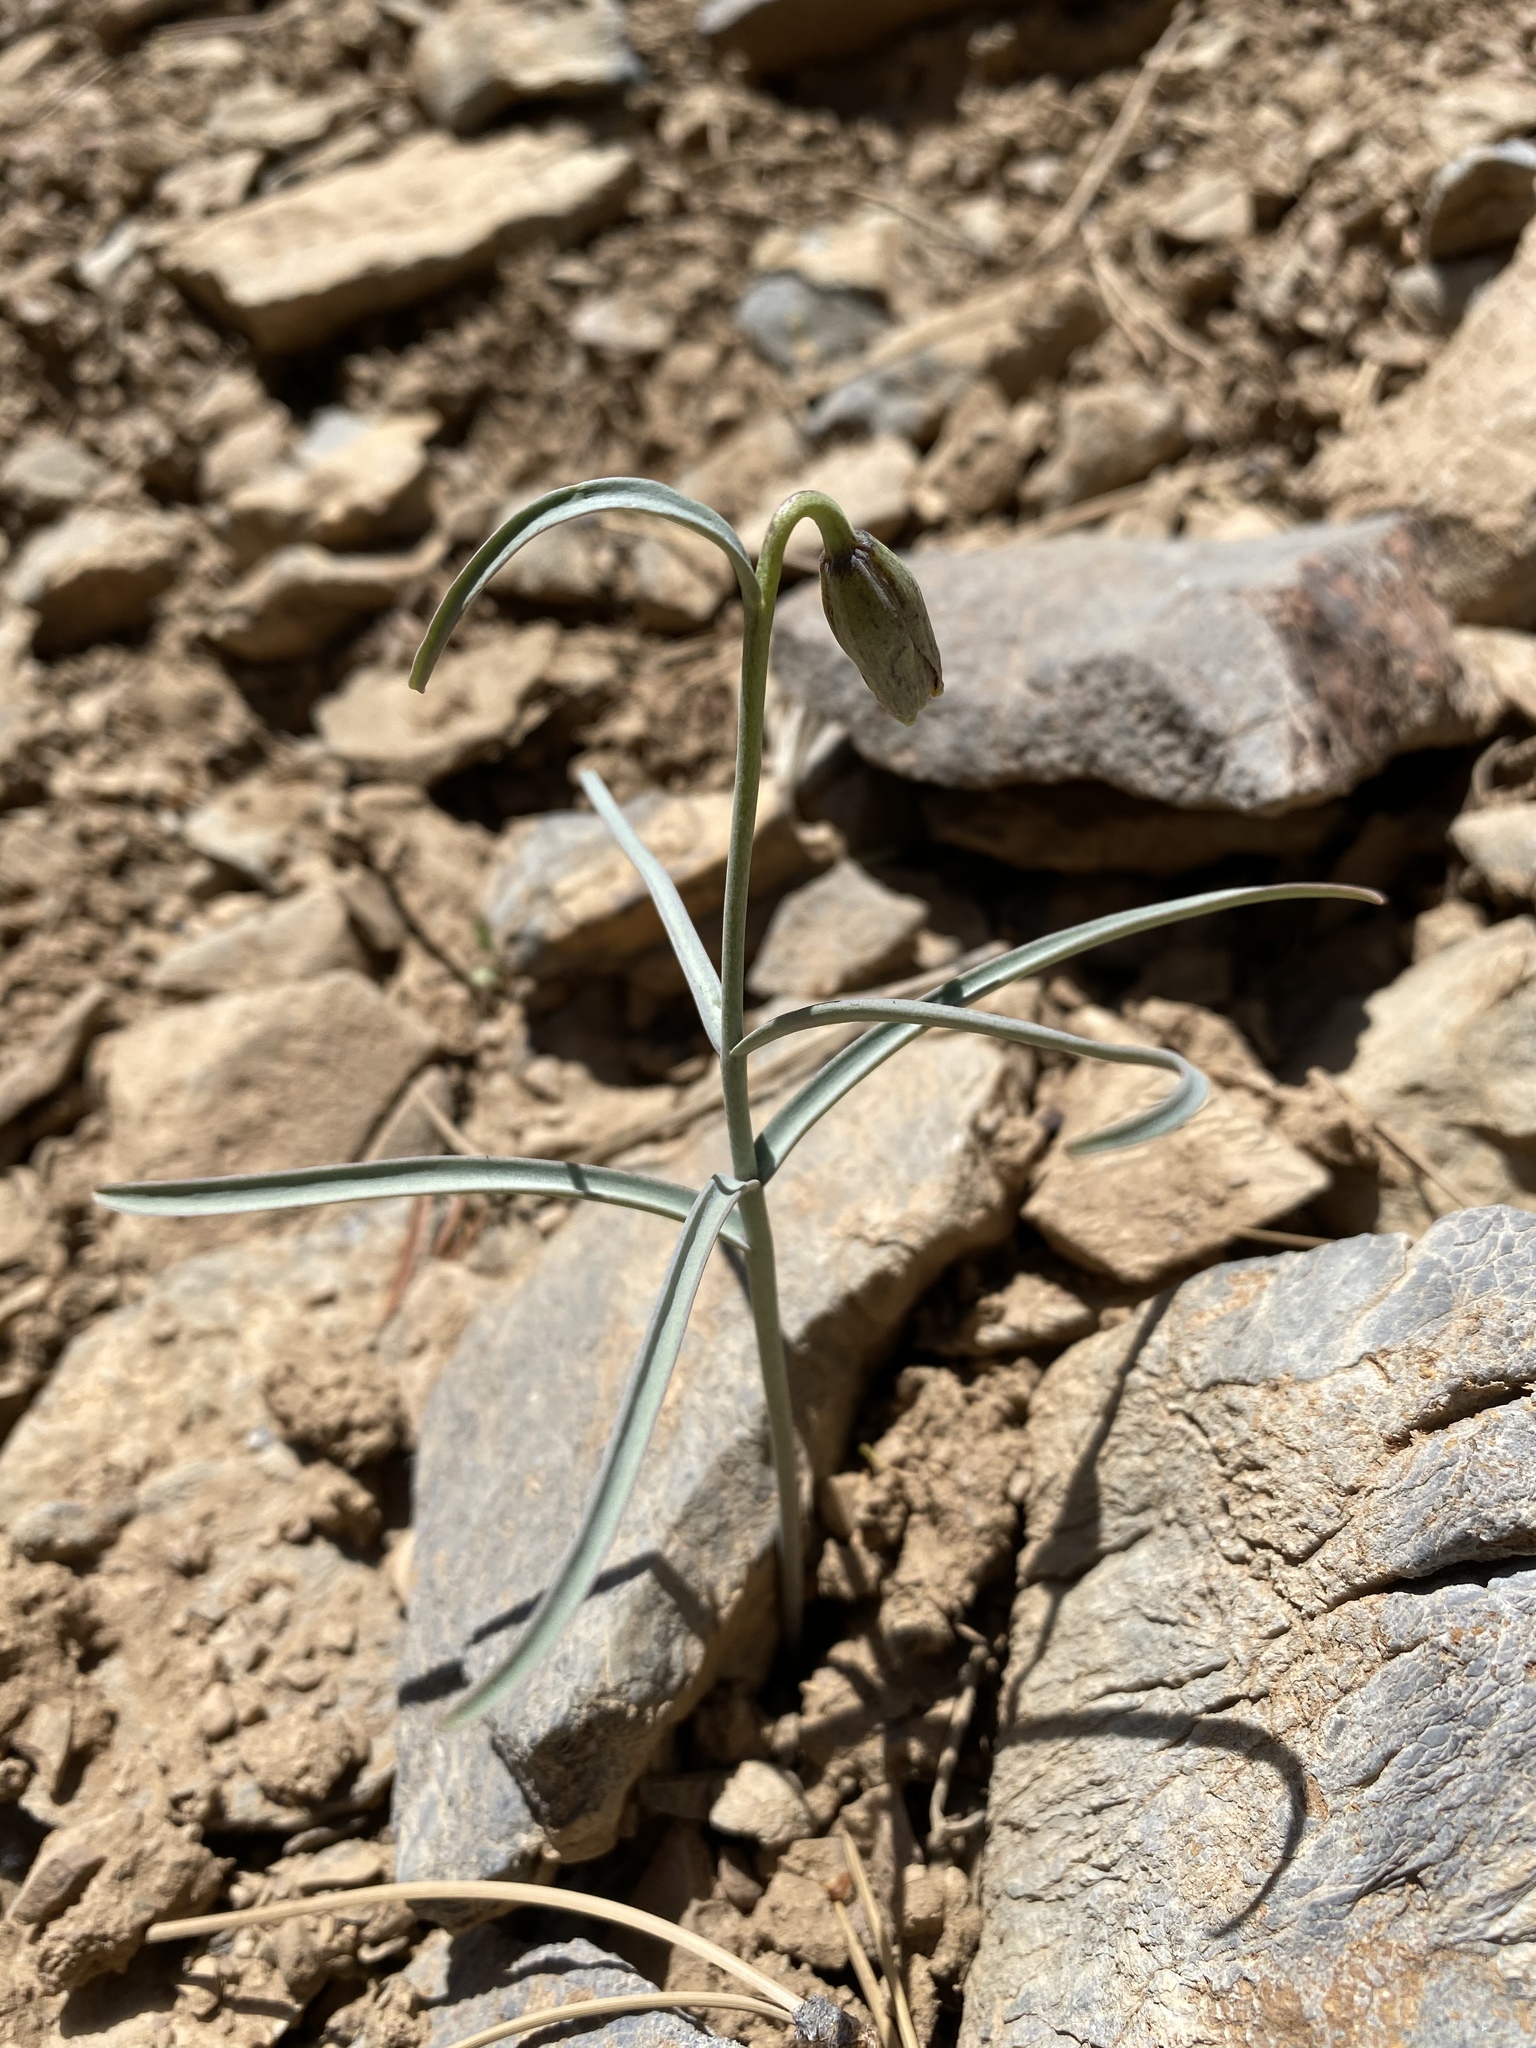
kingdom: Plantae
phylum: Tracheophyta
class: Liliopsida
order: Liliales
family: Liliaceae
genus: Fritillaria
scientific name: Fritillaria atropurpurea
